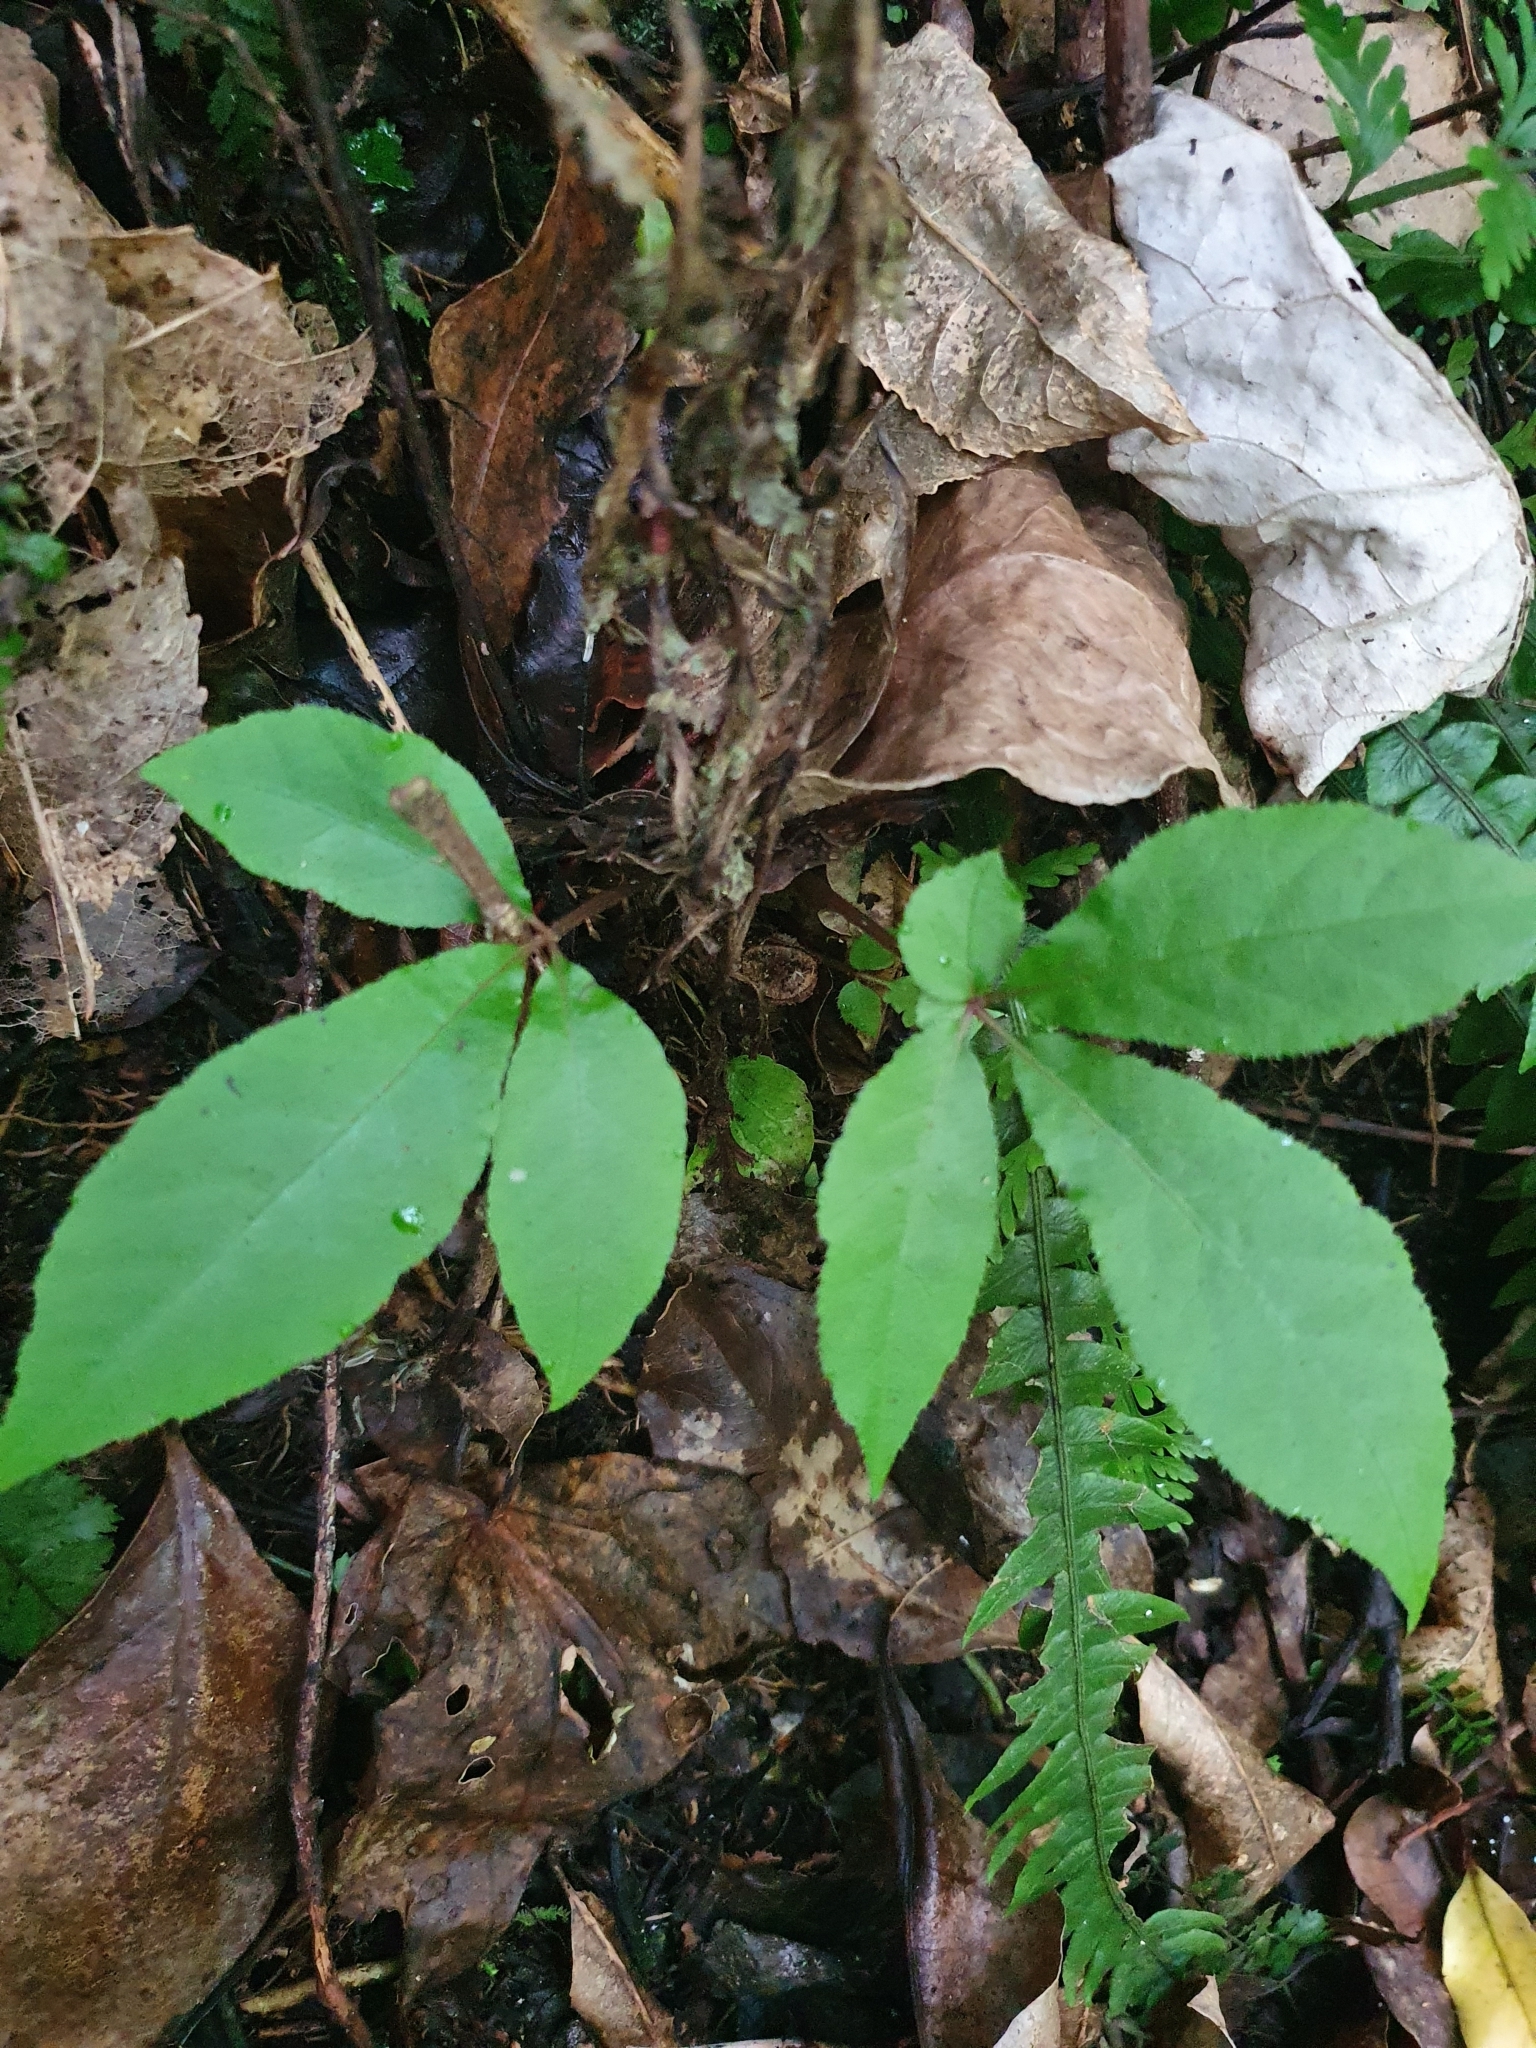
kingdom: Plantae
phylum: Tracheophyta
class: Magnoliopsida
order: Apiales
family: Araliaceae
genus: Schefflera
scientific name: Schefflera digitata
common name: Pate
